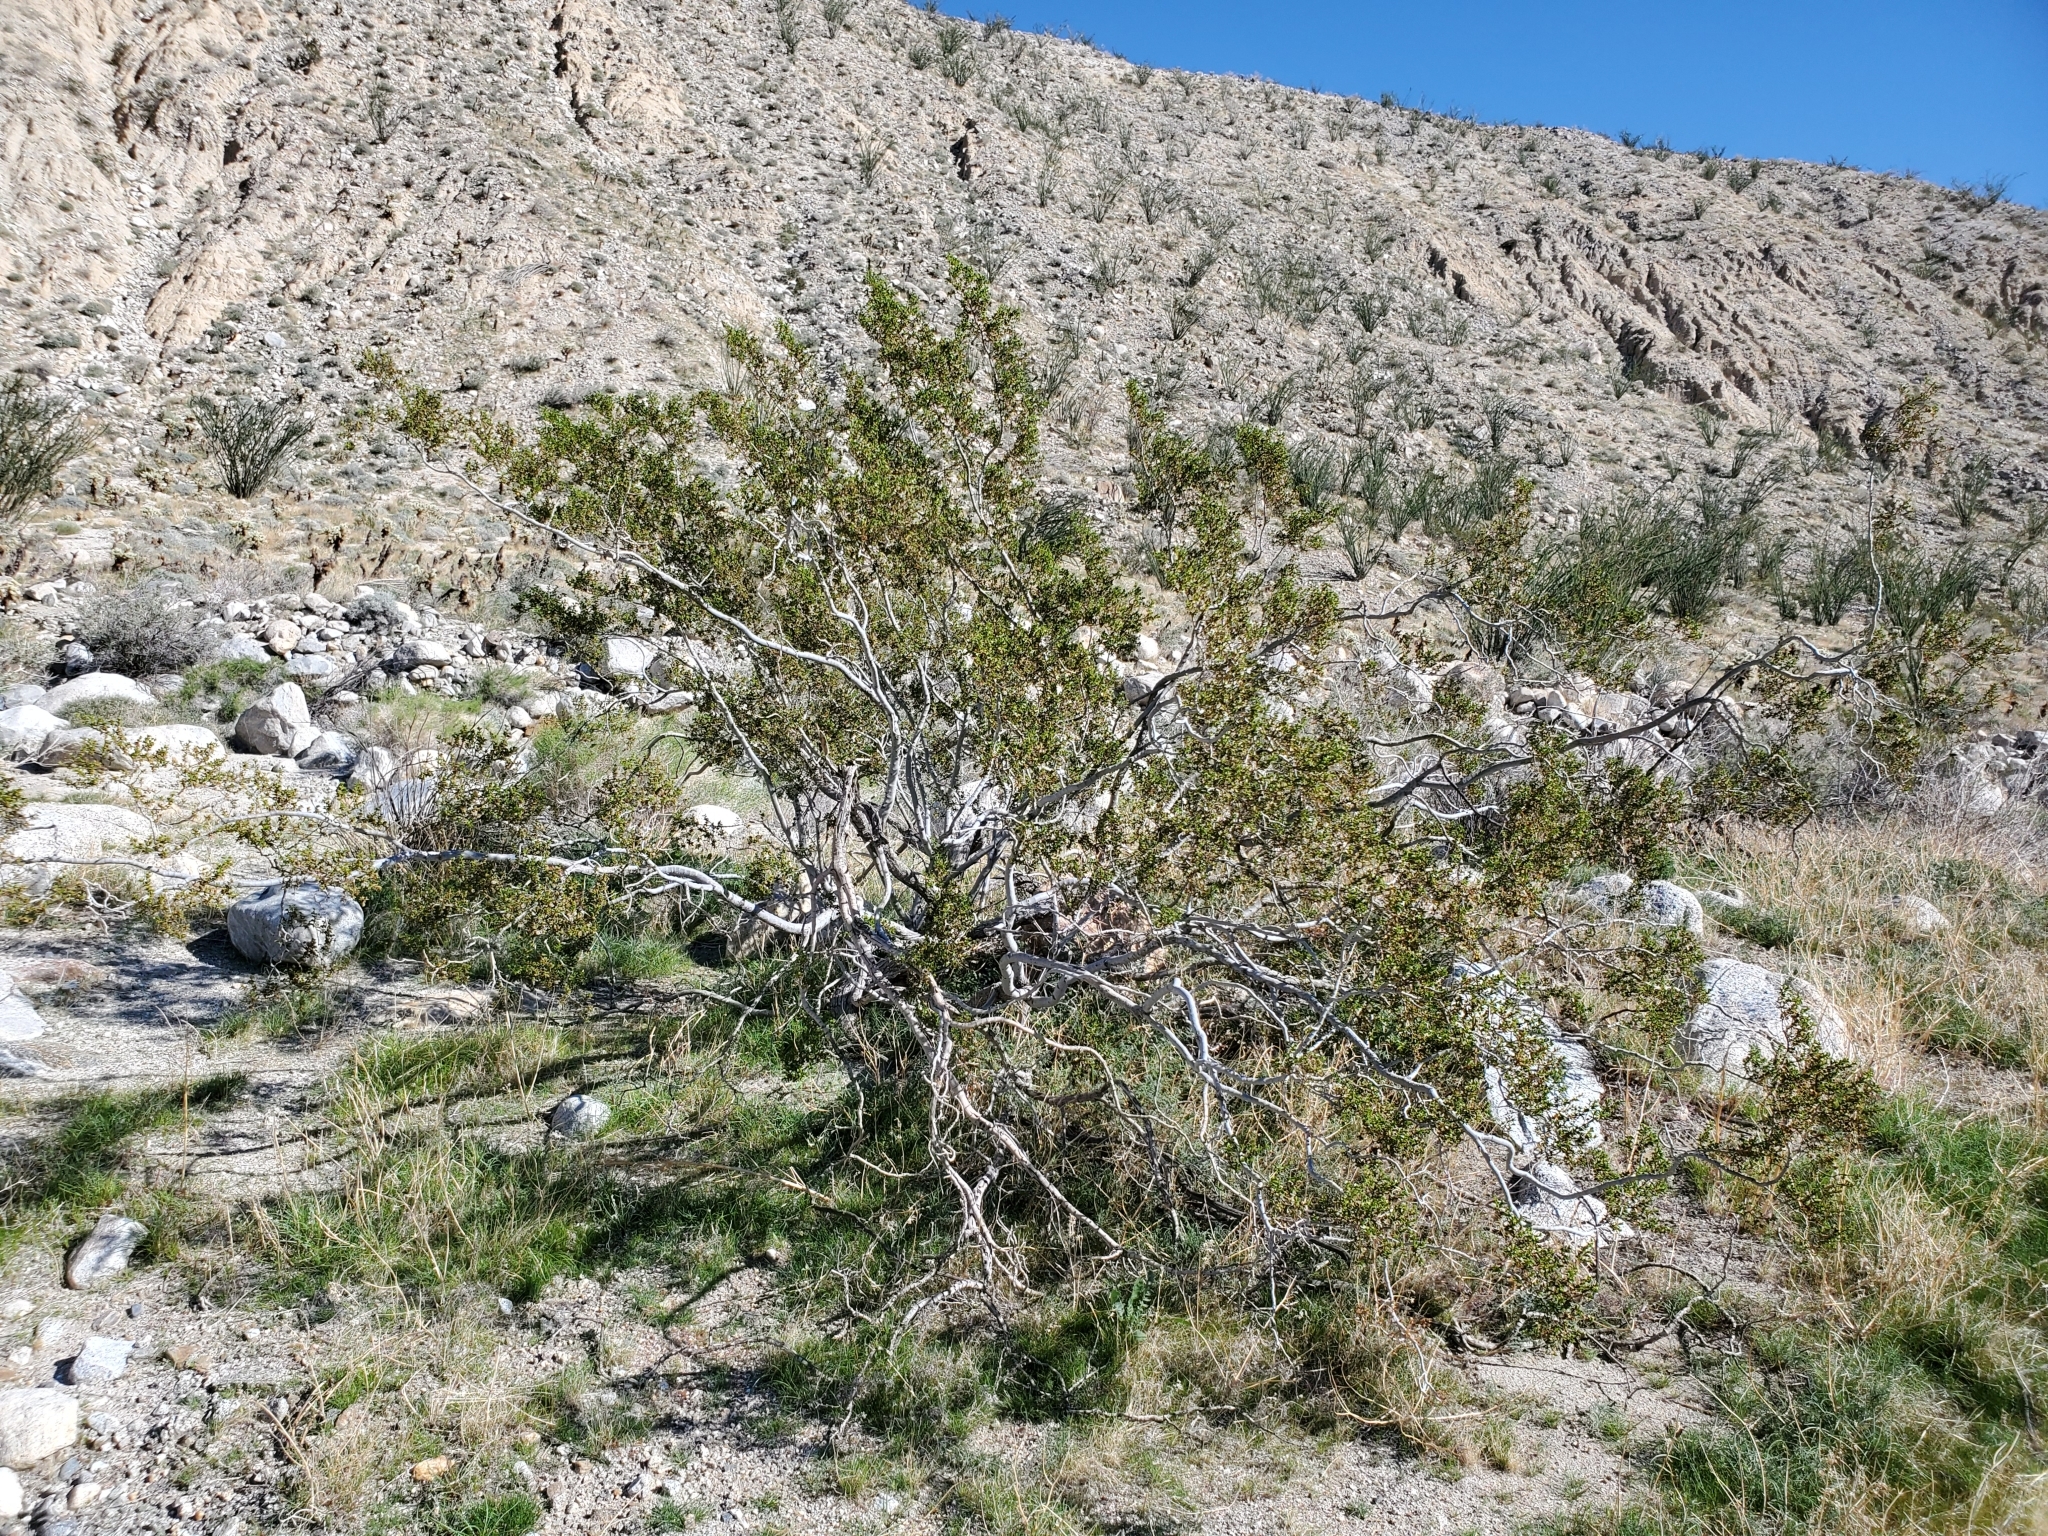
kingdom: Plantae
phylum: Tracheophyta
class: Magnoliopsida
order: Zygophyllales
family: Zygophyllaceae
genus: Larrea
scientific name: Larrea tridentata
